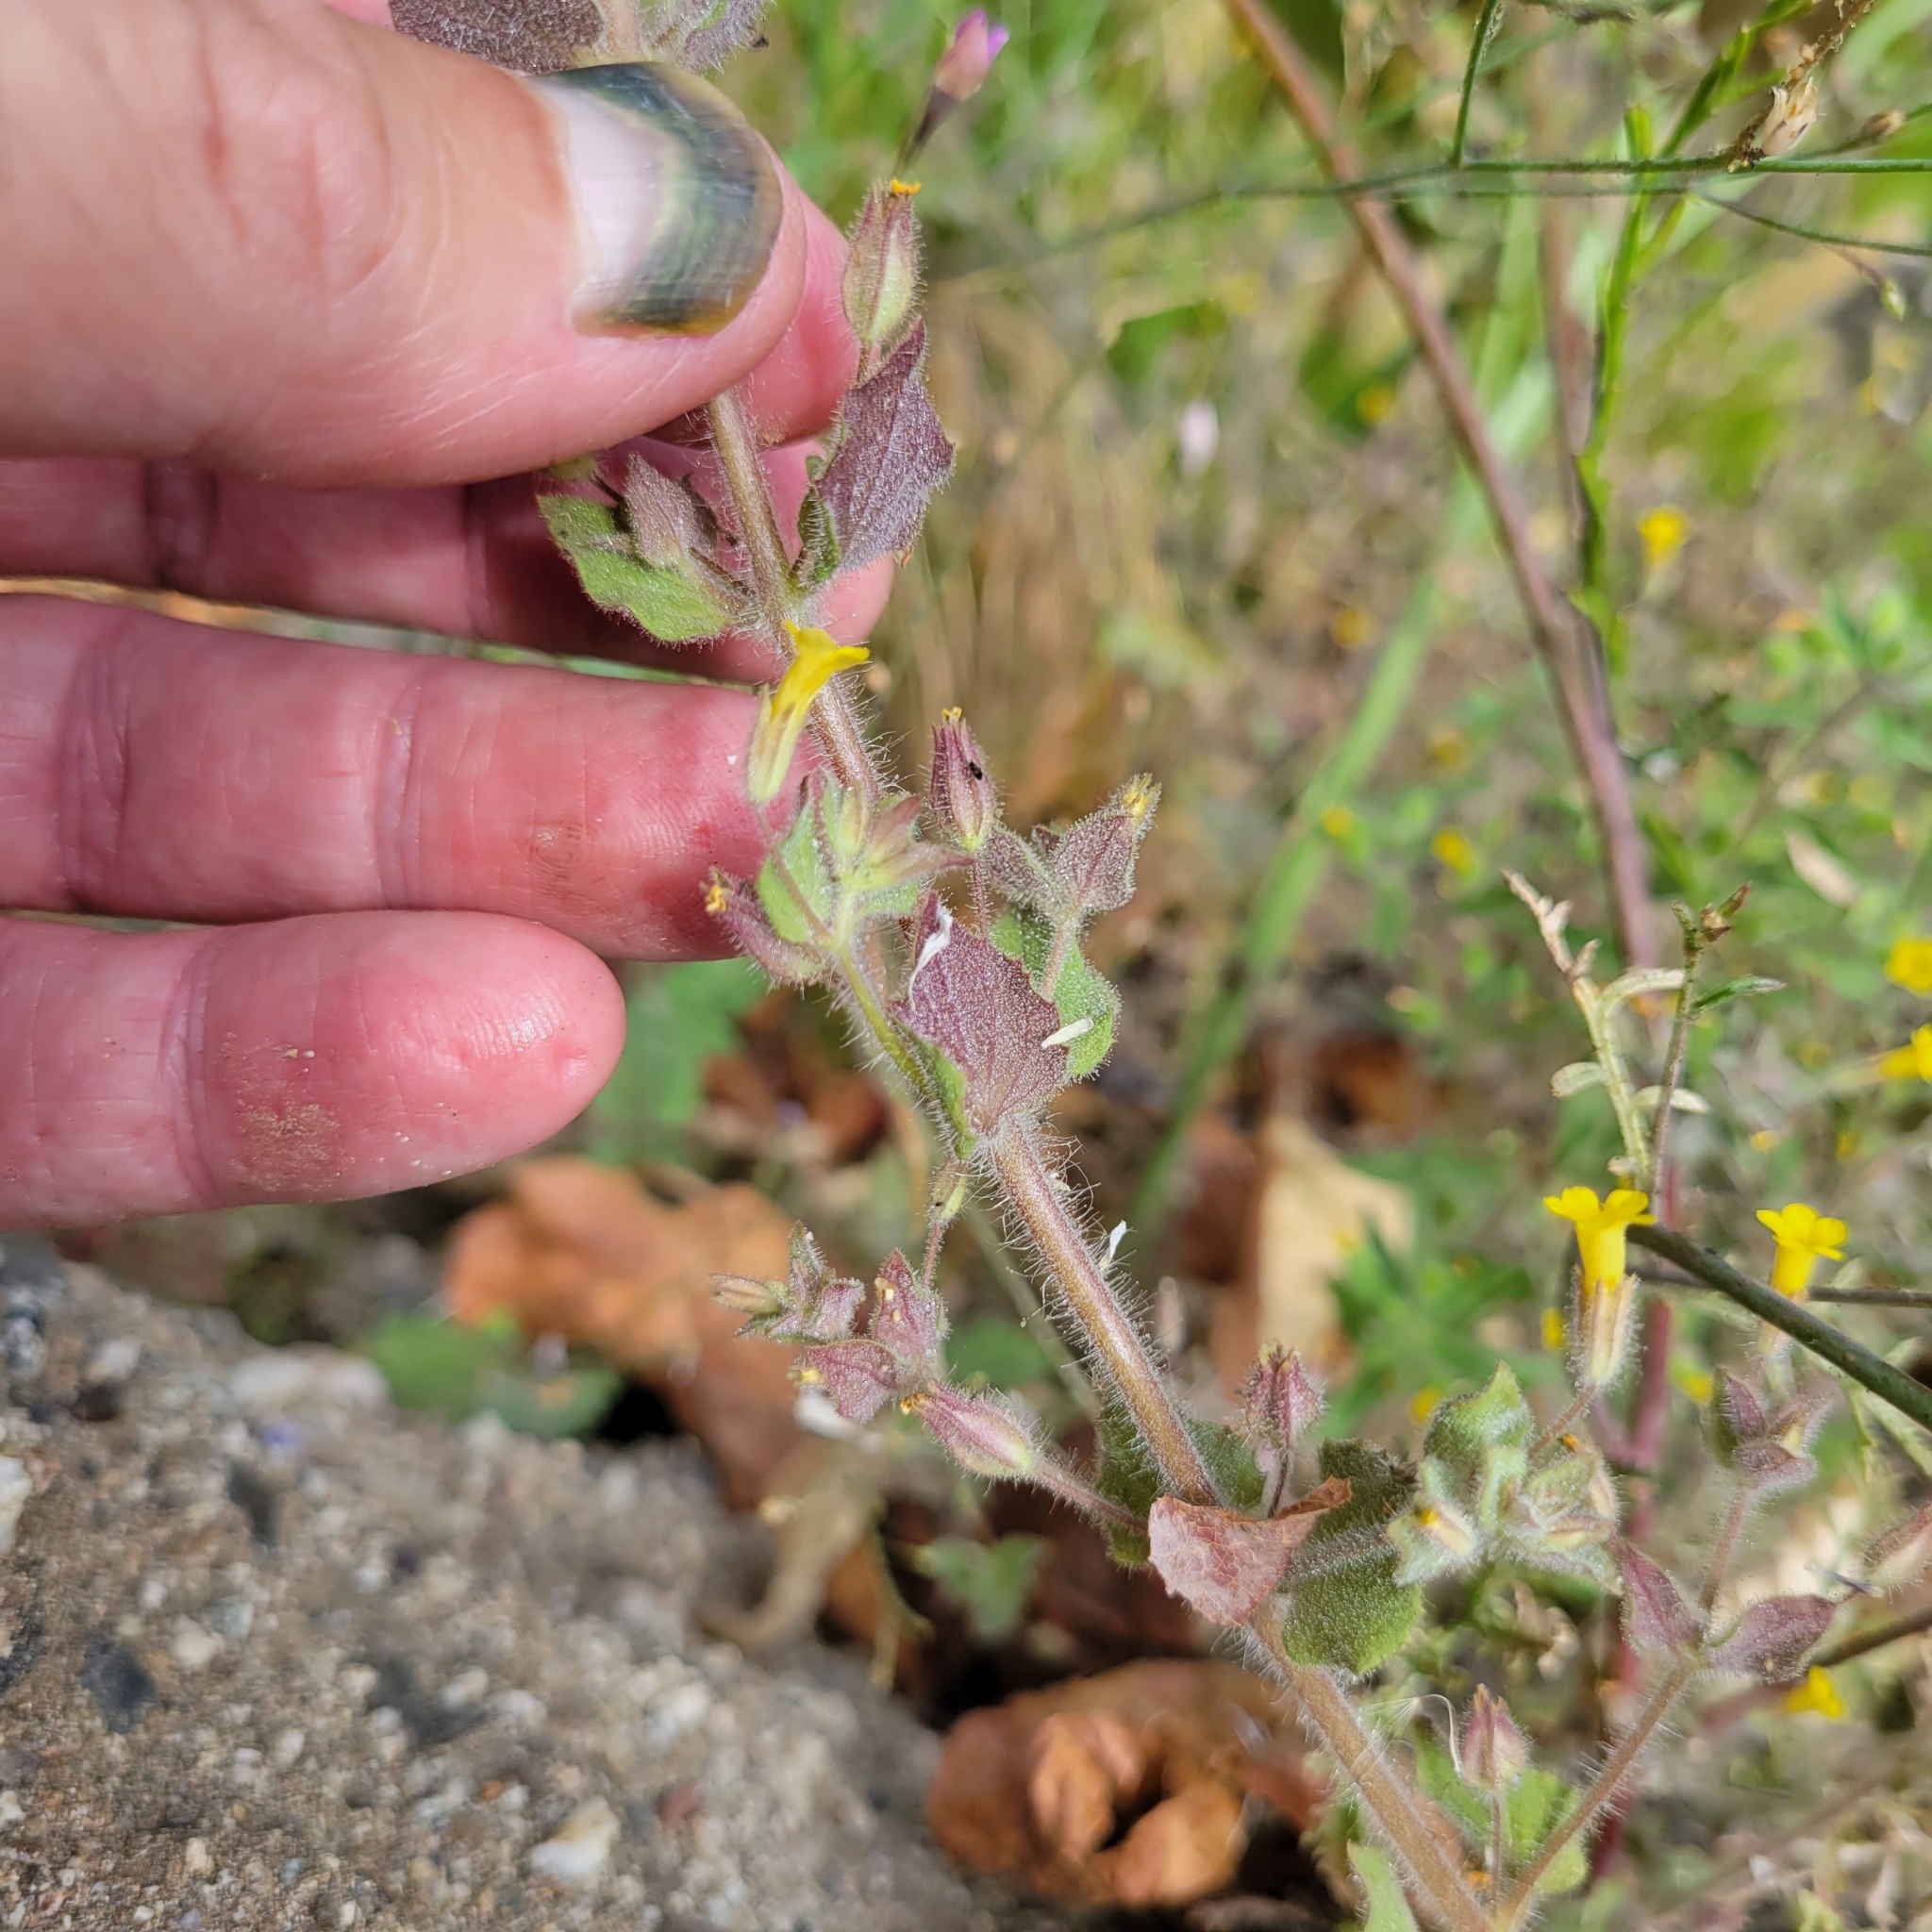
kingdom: Plantae
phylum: Tracheophyta
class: Magnoliopsida
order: Lamiales
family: Phrymaceae
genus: Erythranthe
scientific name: Erythranthe floribunda
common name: Floriferous monkeyflower
